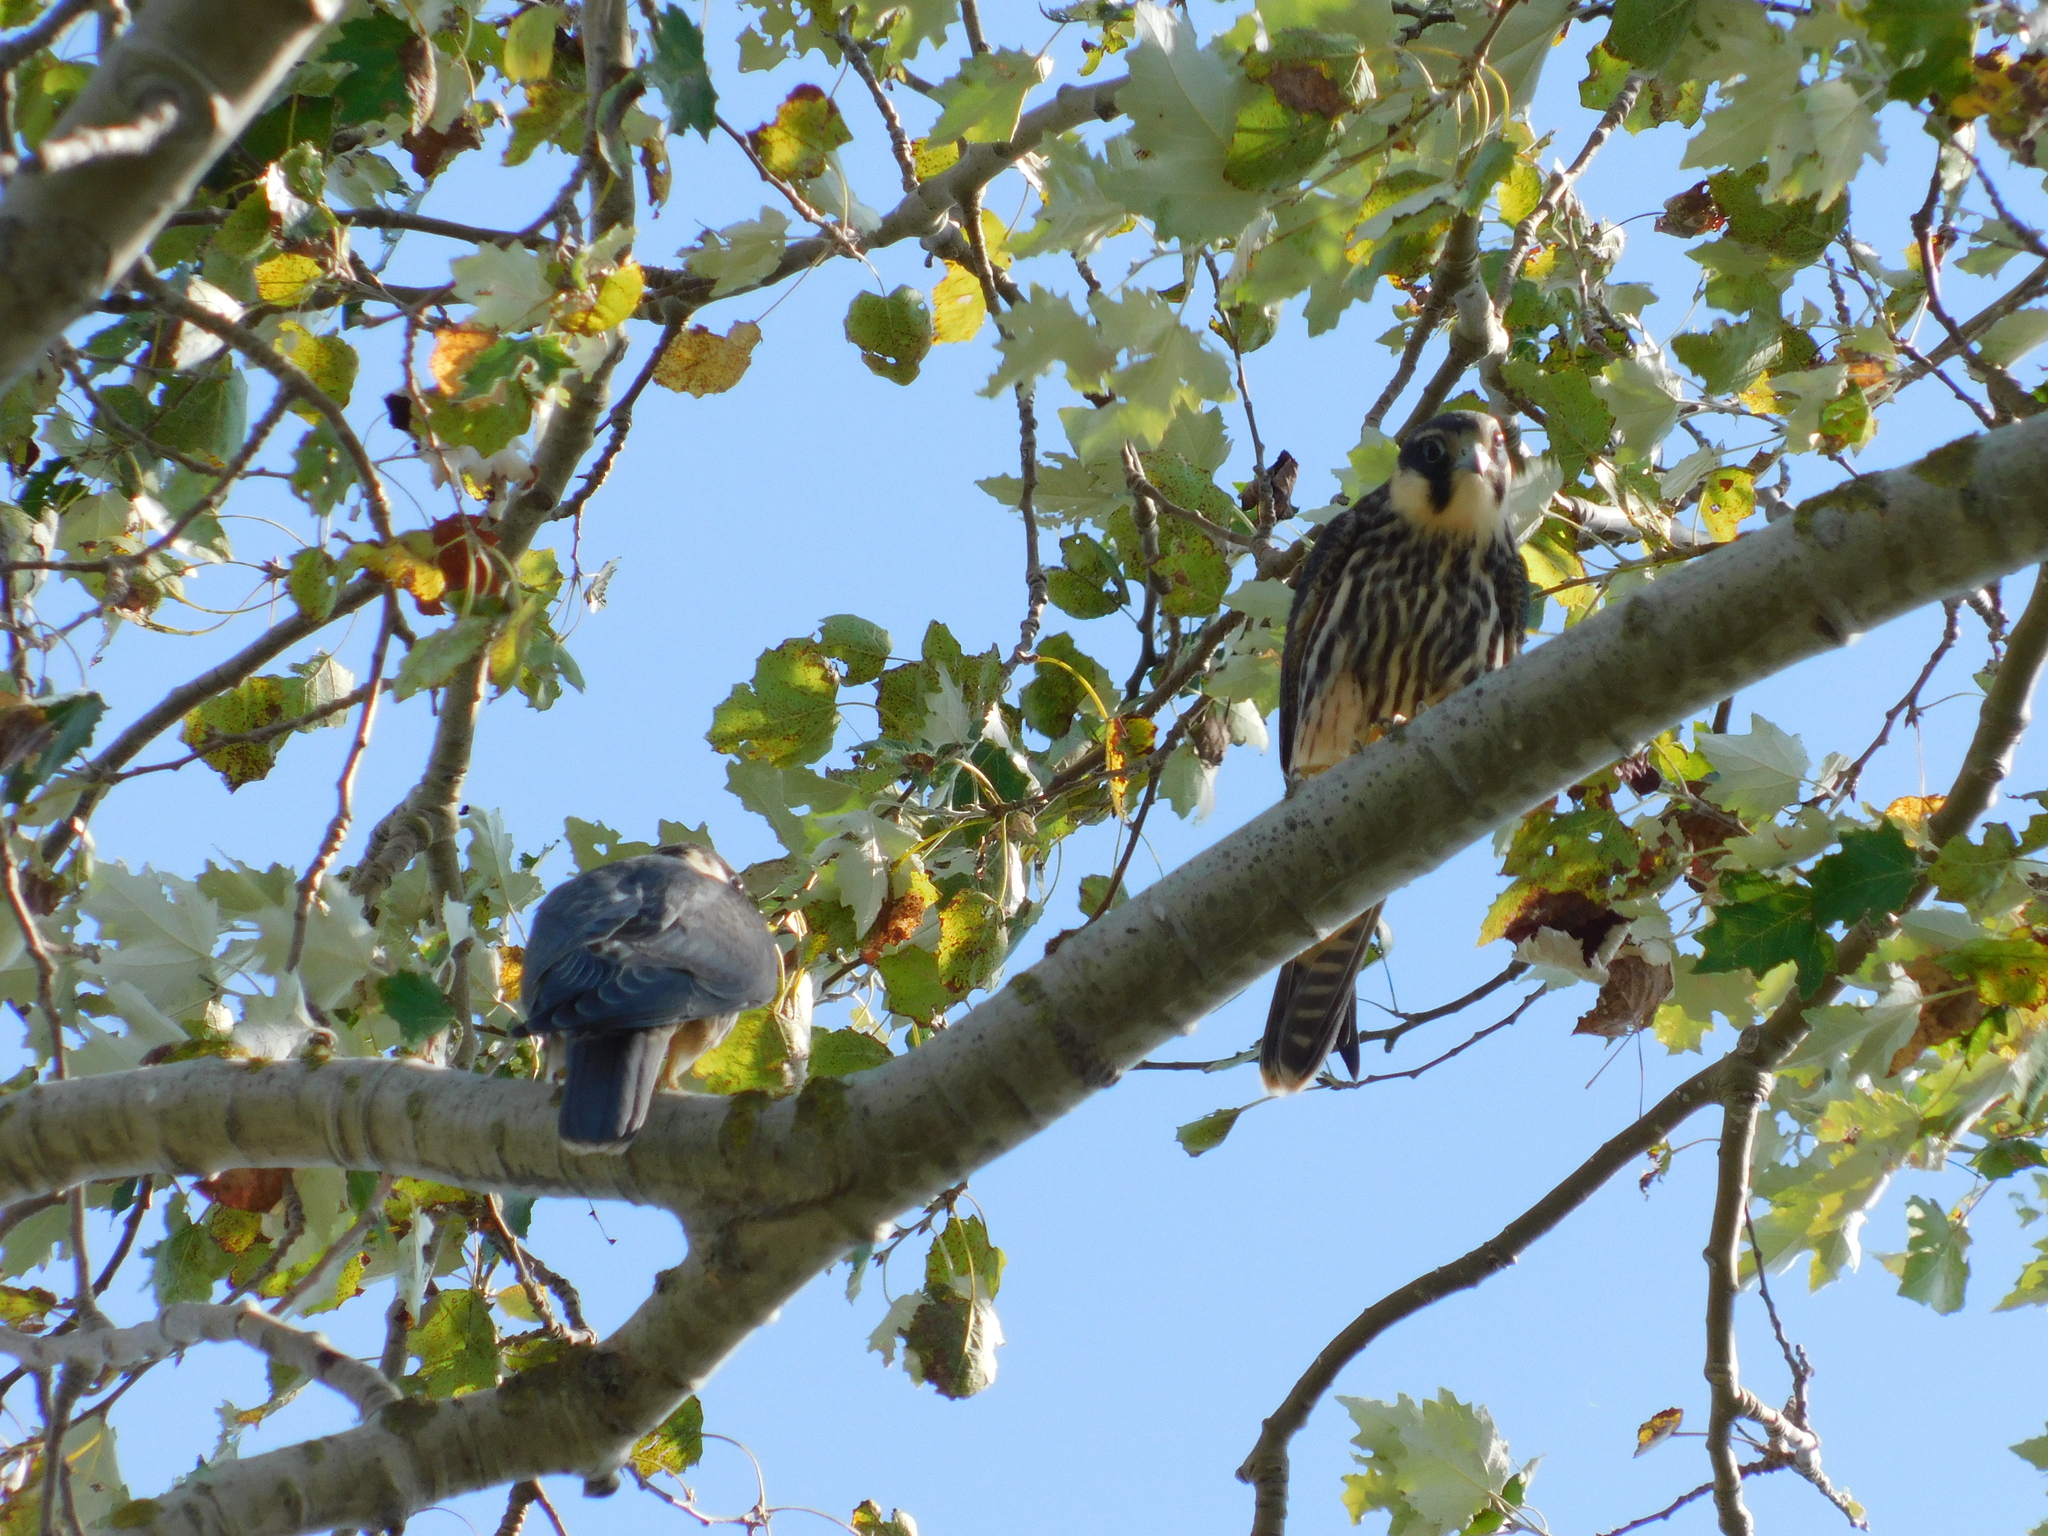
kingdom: Animalia
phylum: Chordata
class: Aves
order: Falconiformes
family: Falconidae
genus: Falco
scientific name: Falco subbuteo
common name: Eurasian hobby
